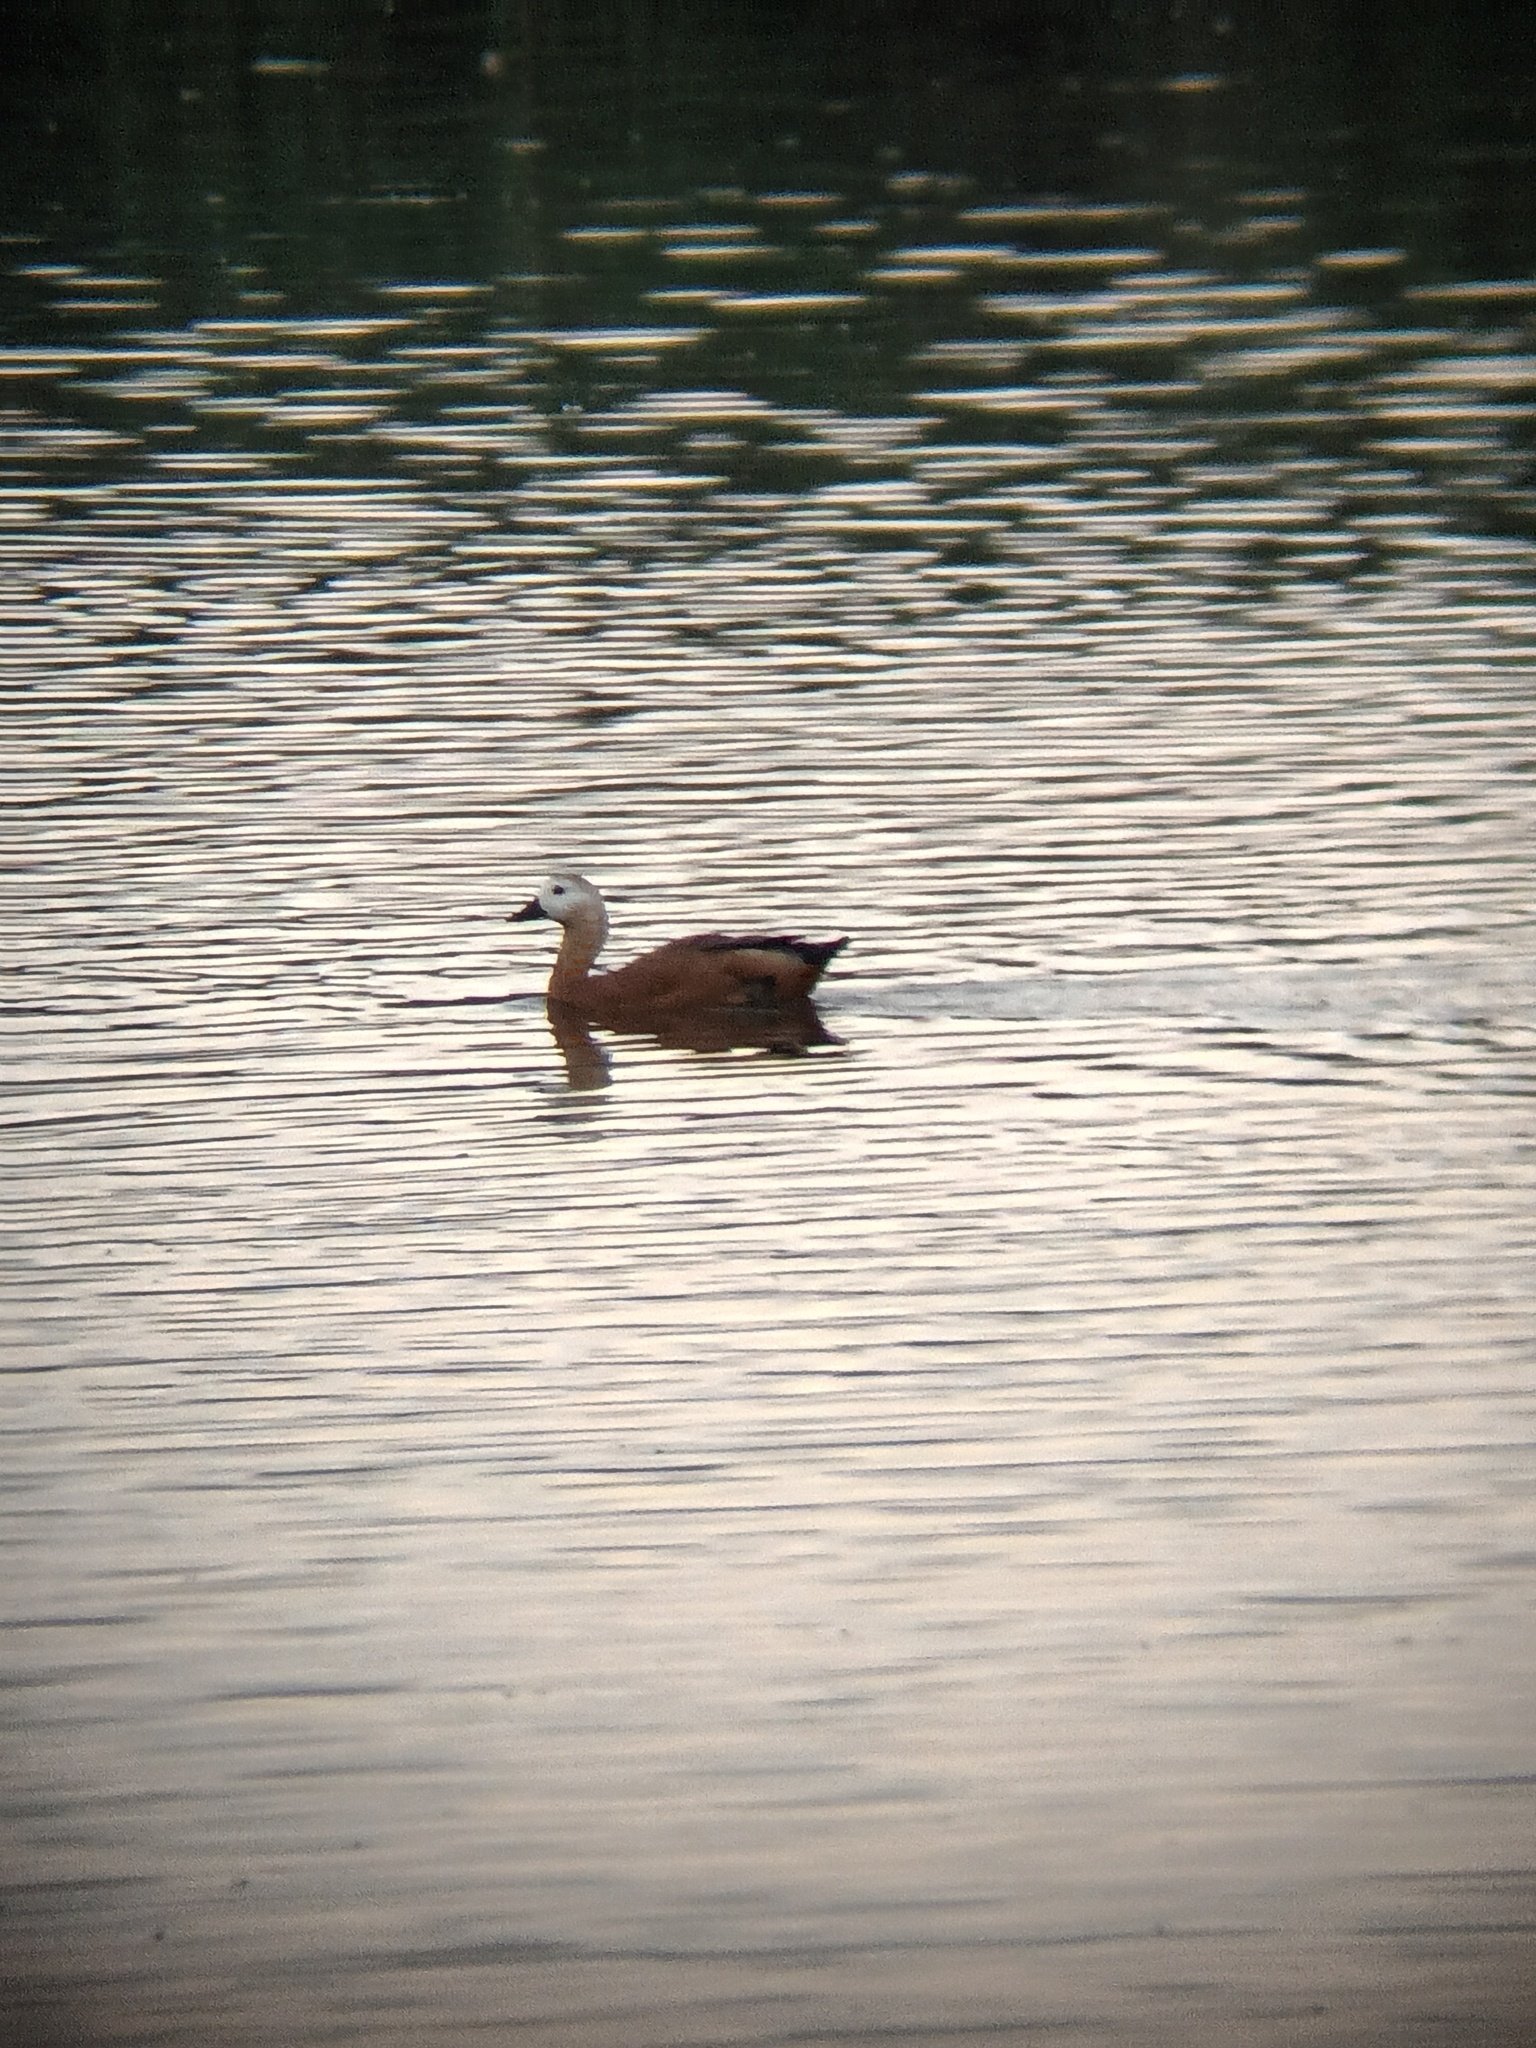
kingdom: Animalia
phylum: Chordata
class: Aves
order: Anseriformes
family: Anatidae
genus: Tadorna
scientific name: Tadorna ferruginea
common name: Ruddy shelduck
